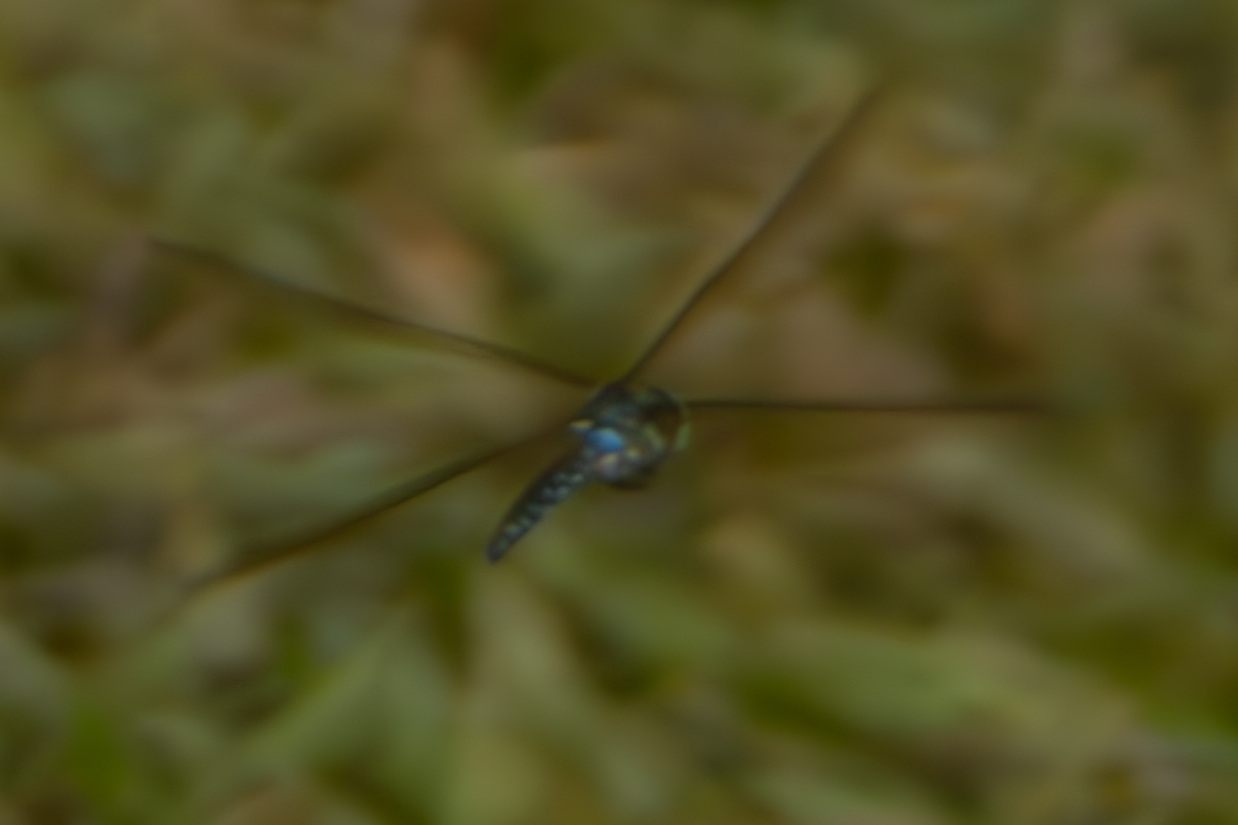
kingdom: Animalia
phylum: Arthropoda
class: Insecta
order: Odonata
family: Aeshnidae
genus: Aeshna
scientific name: Aeshna umbrosa
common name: Shadow darner
